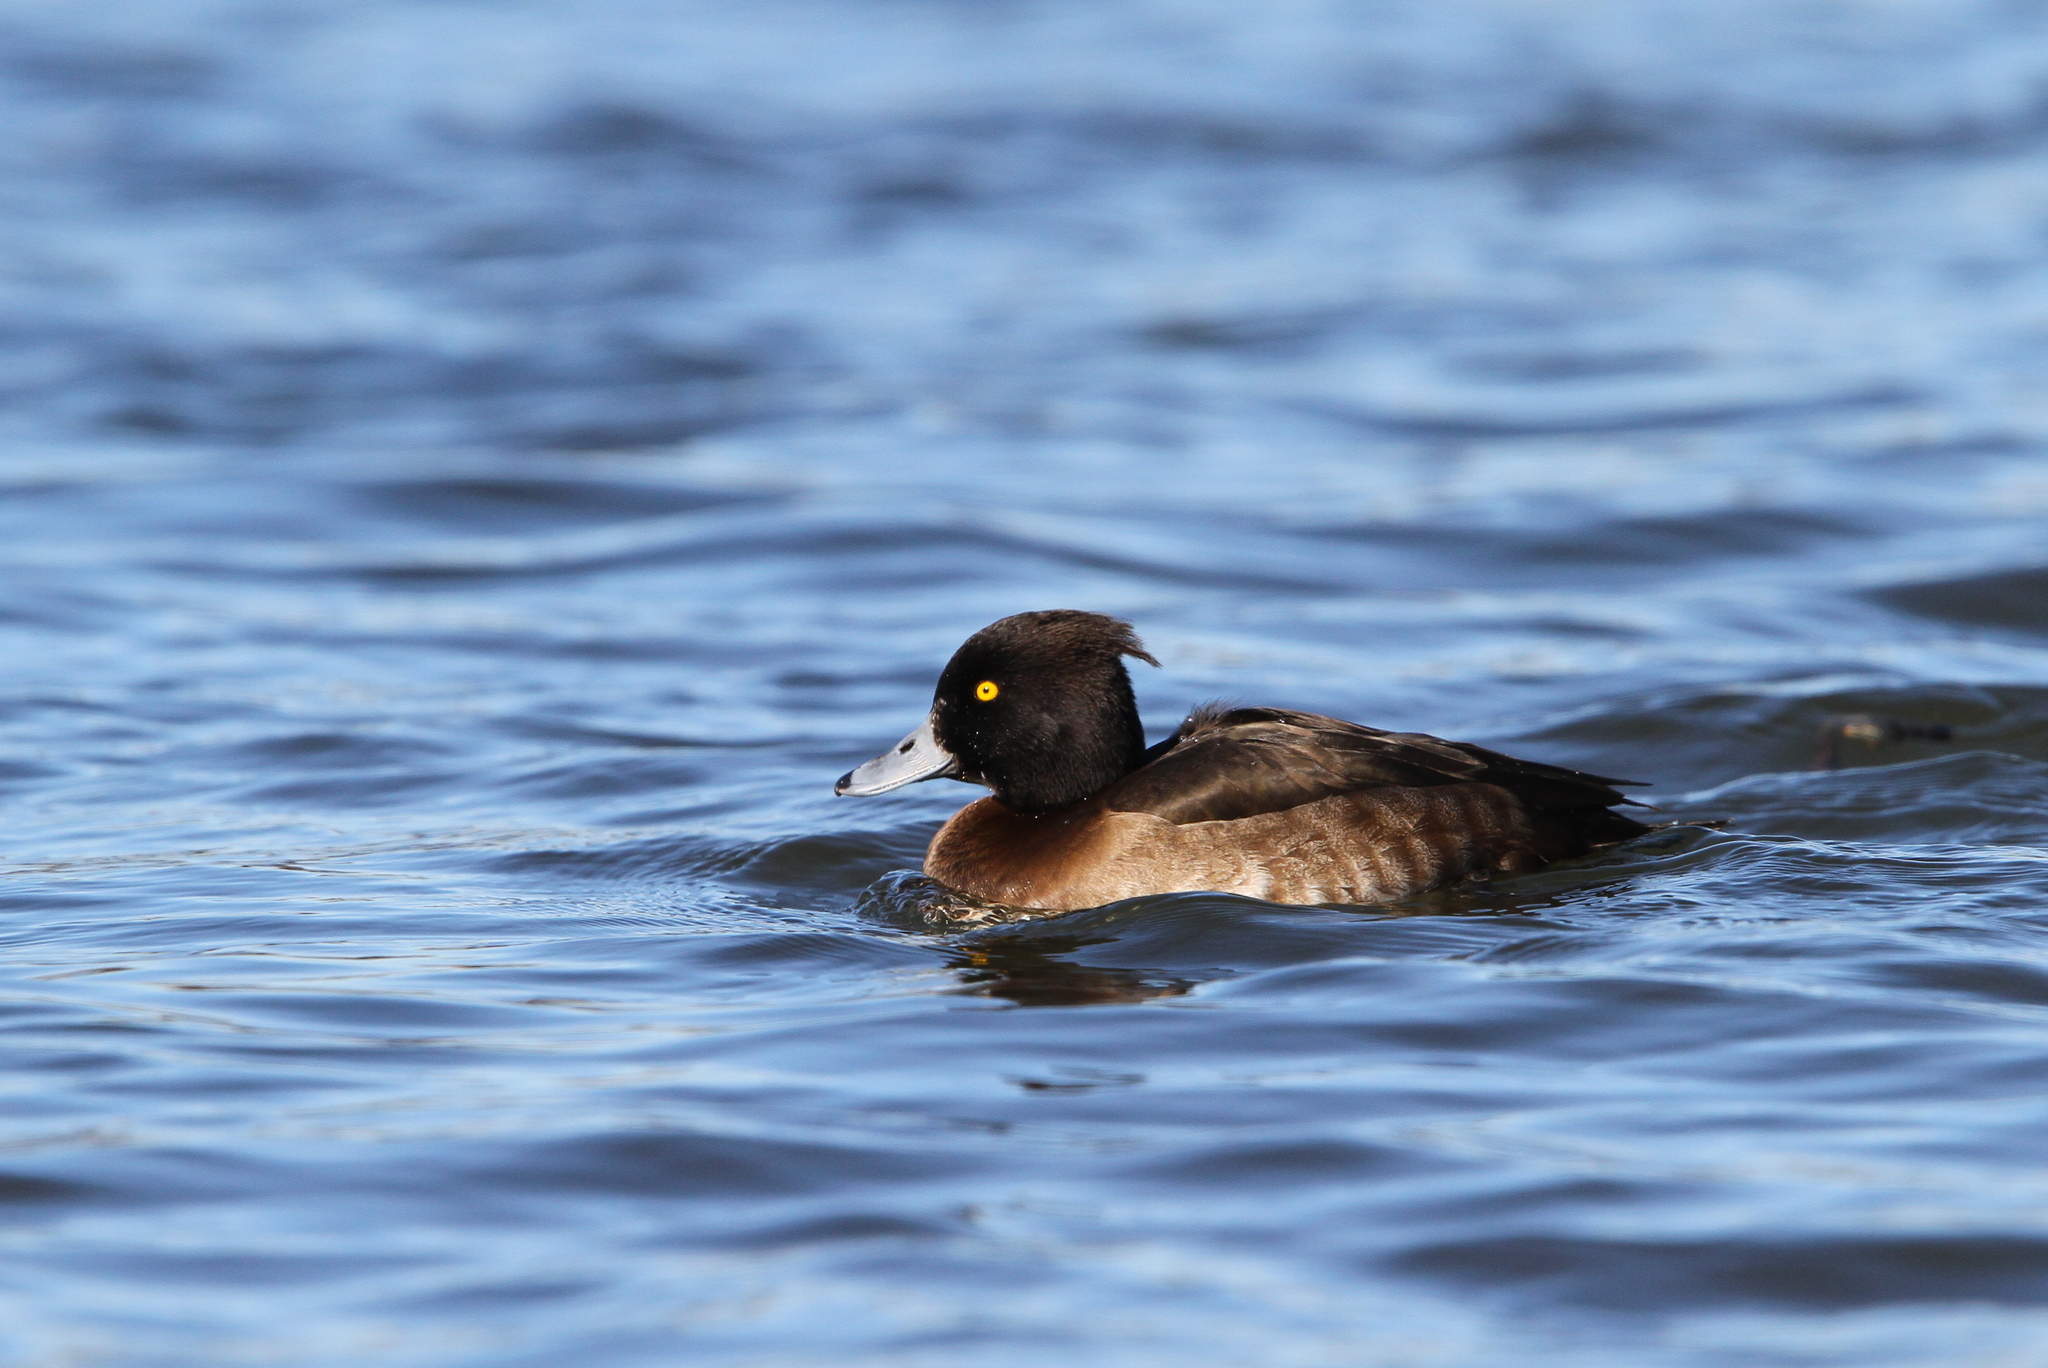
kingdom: Animalia
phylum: Chordata
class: Aves
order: Anseriformes
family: Anatidae
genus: Aythya
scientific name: Aythya fuligula
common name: Tufted duck
